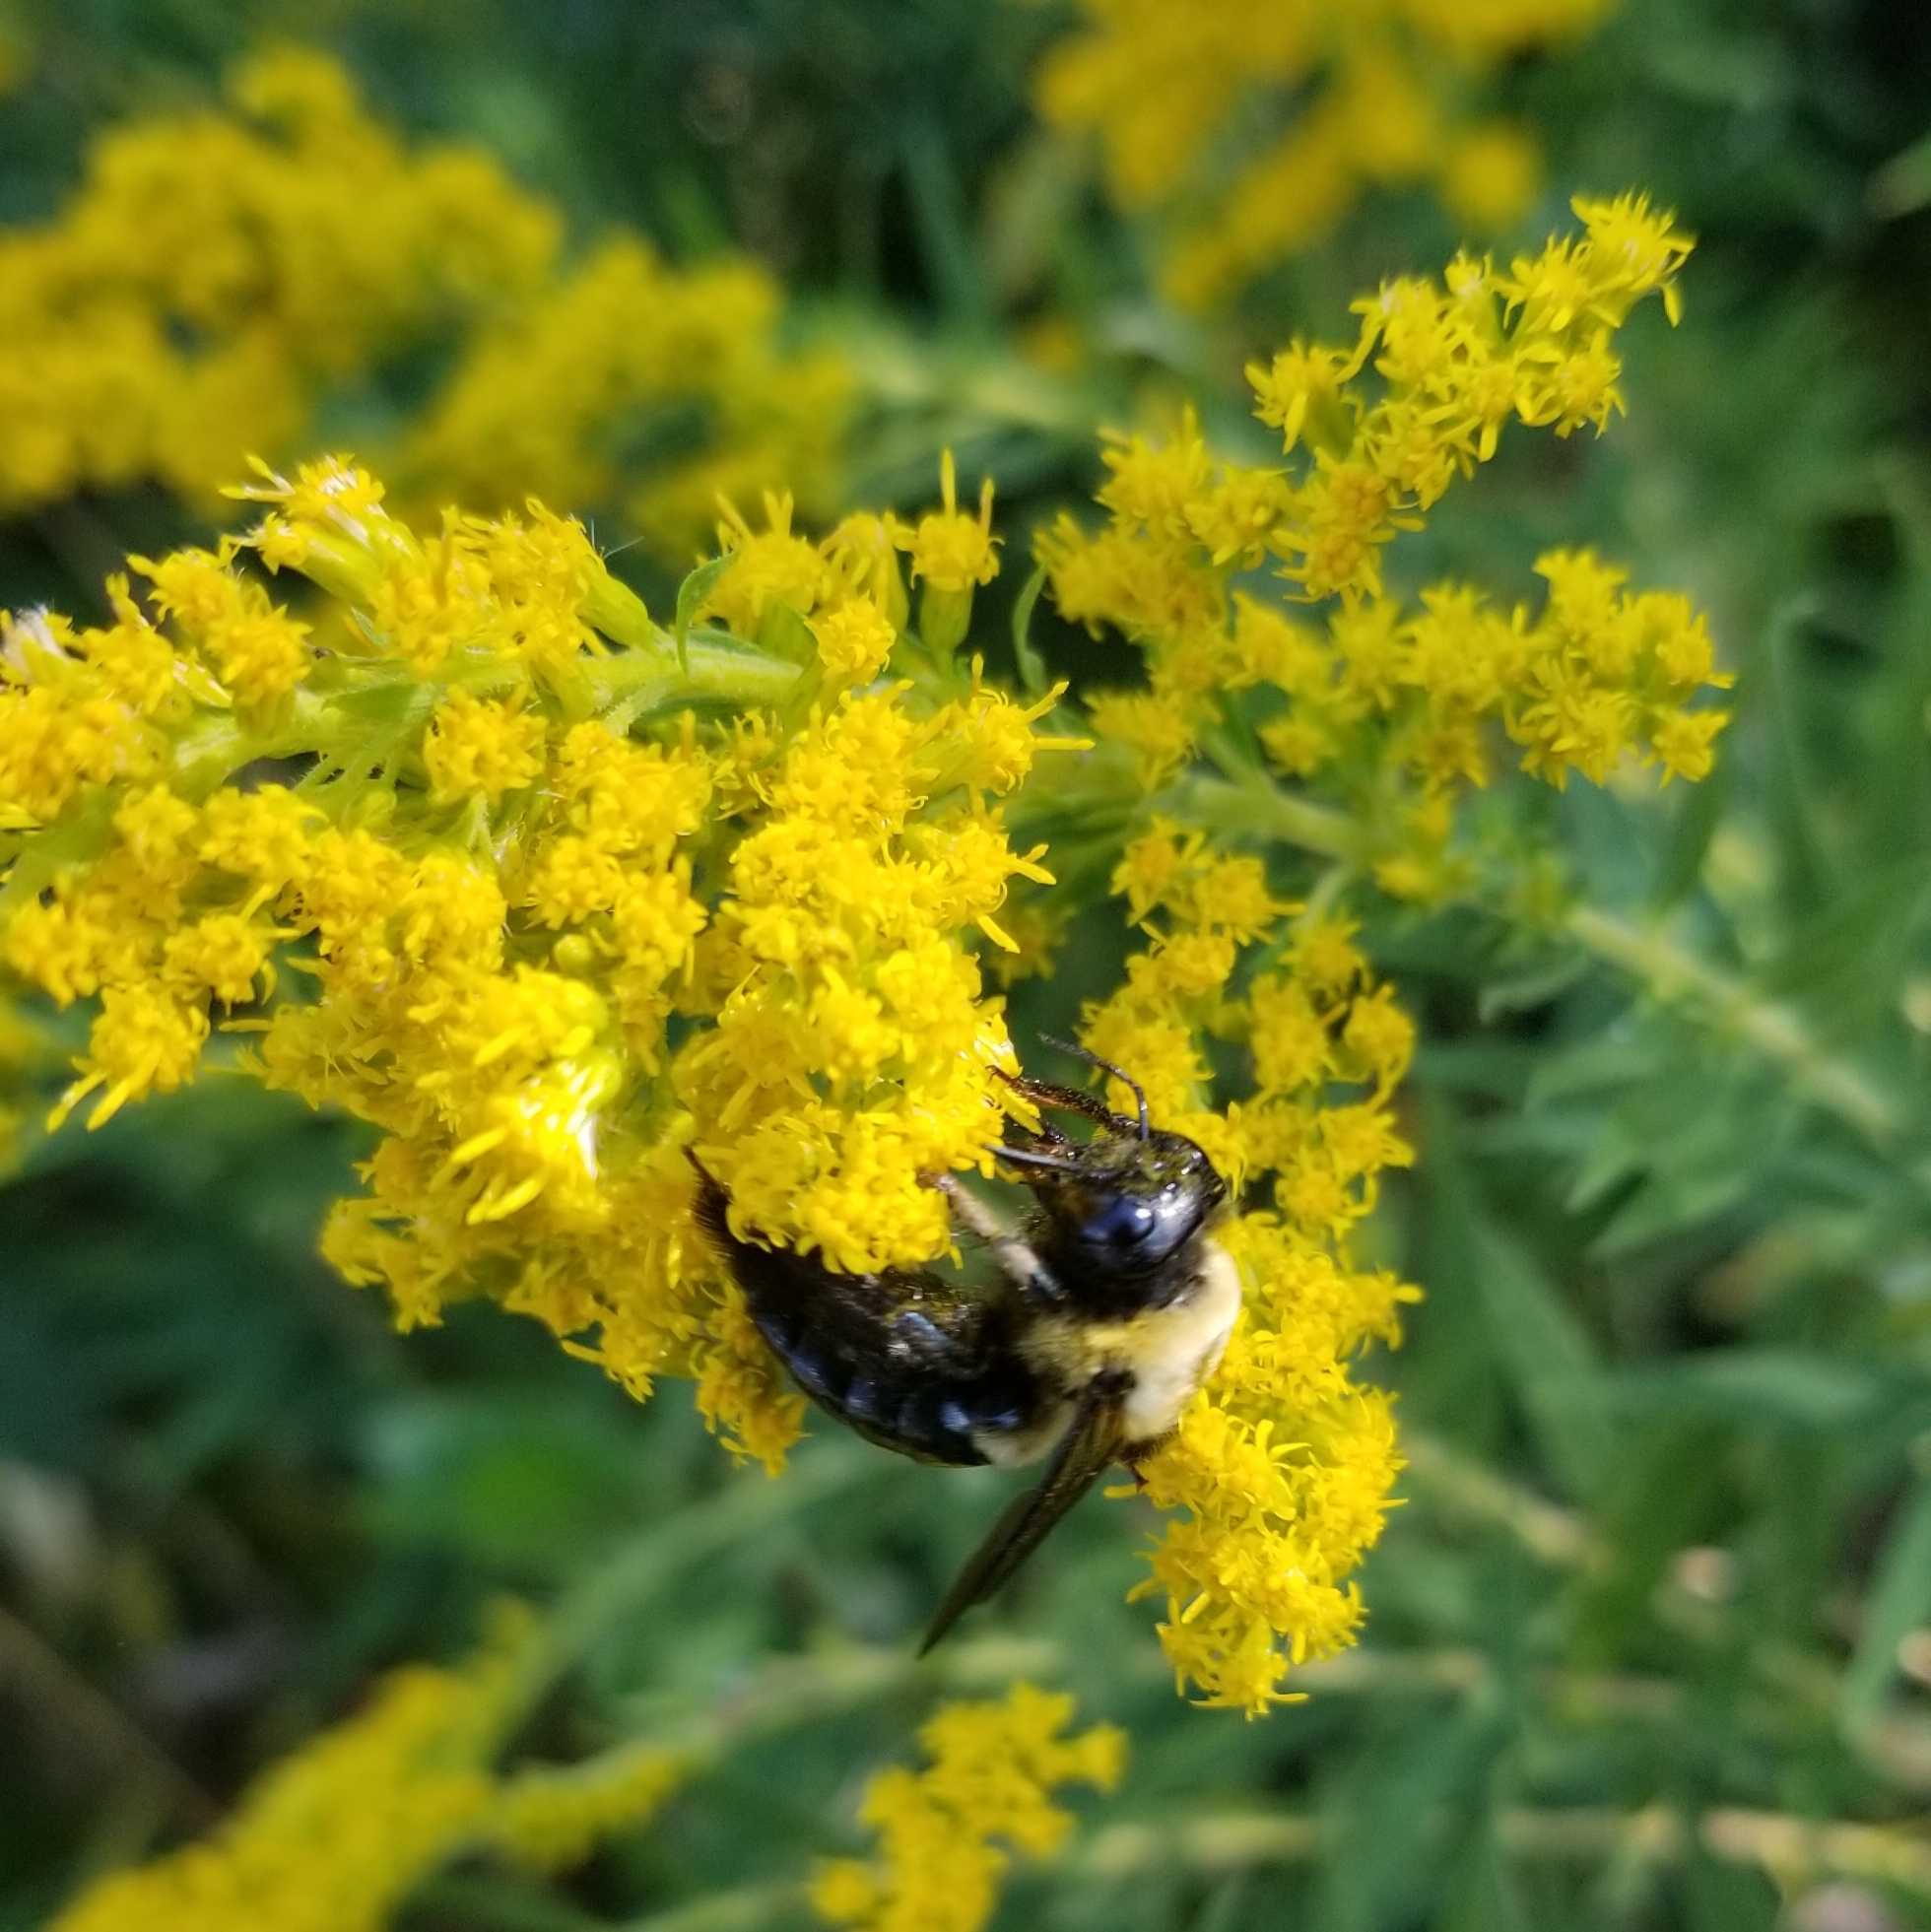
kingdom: Animalia
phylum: Arthropoda
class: Insecta
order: Hymenoptera
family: Apidae
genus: Xylocopa
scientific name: Xylocopa virginica
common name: Carpenter bee
